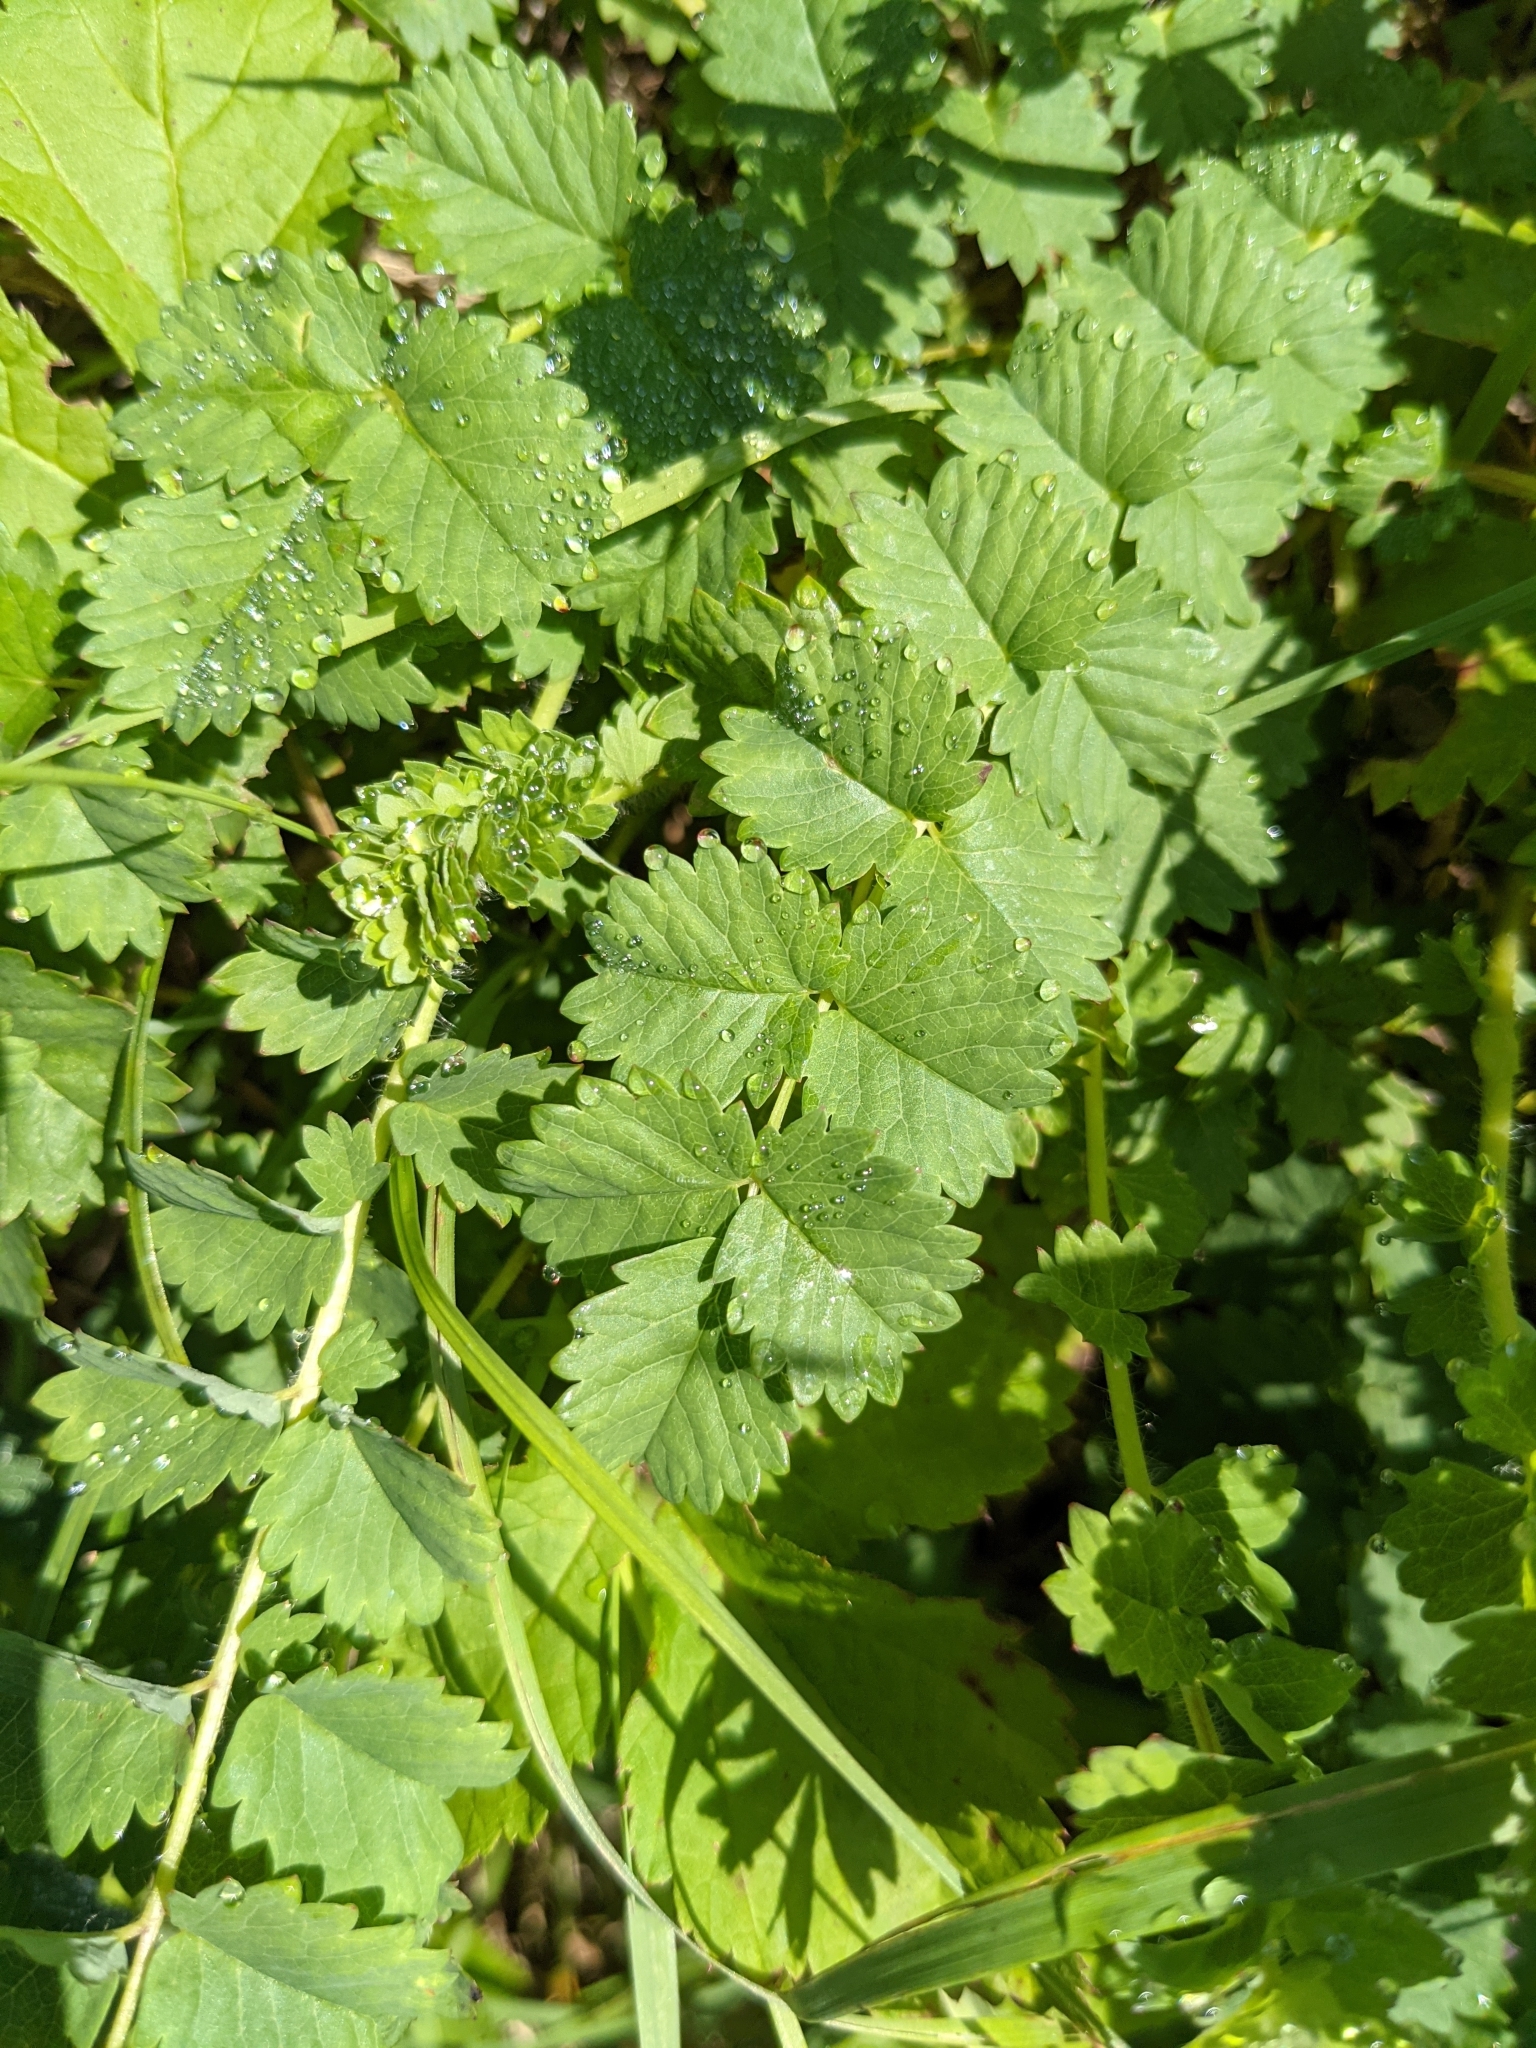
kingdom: Plantae
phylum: Tracheophyta
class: Magnoliopsida
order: Rosales
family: Rosaceae
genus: Poterium
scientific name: Poterium sanguisorba
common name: Salad burnet
